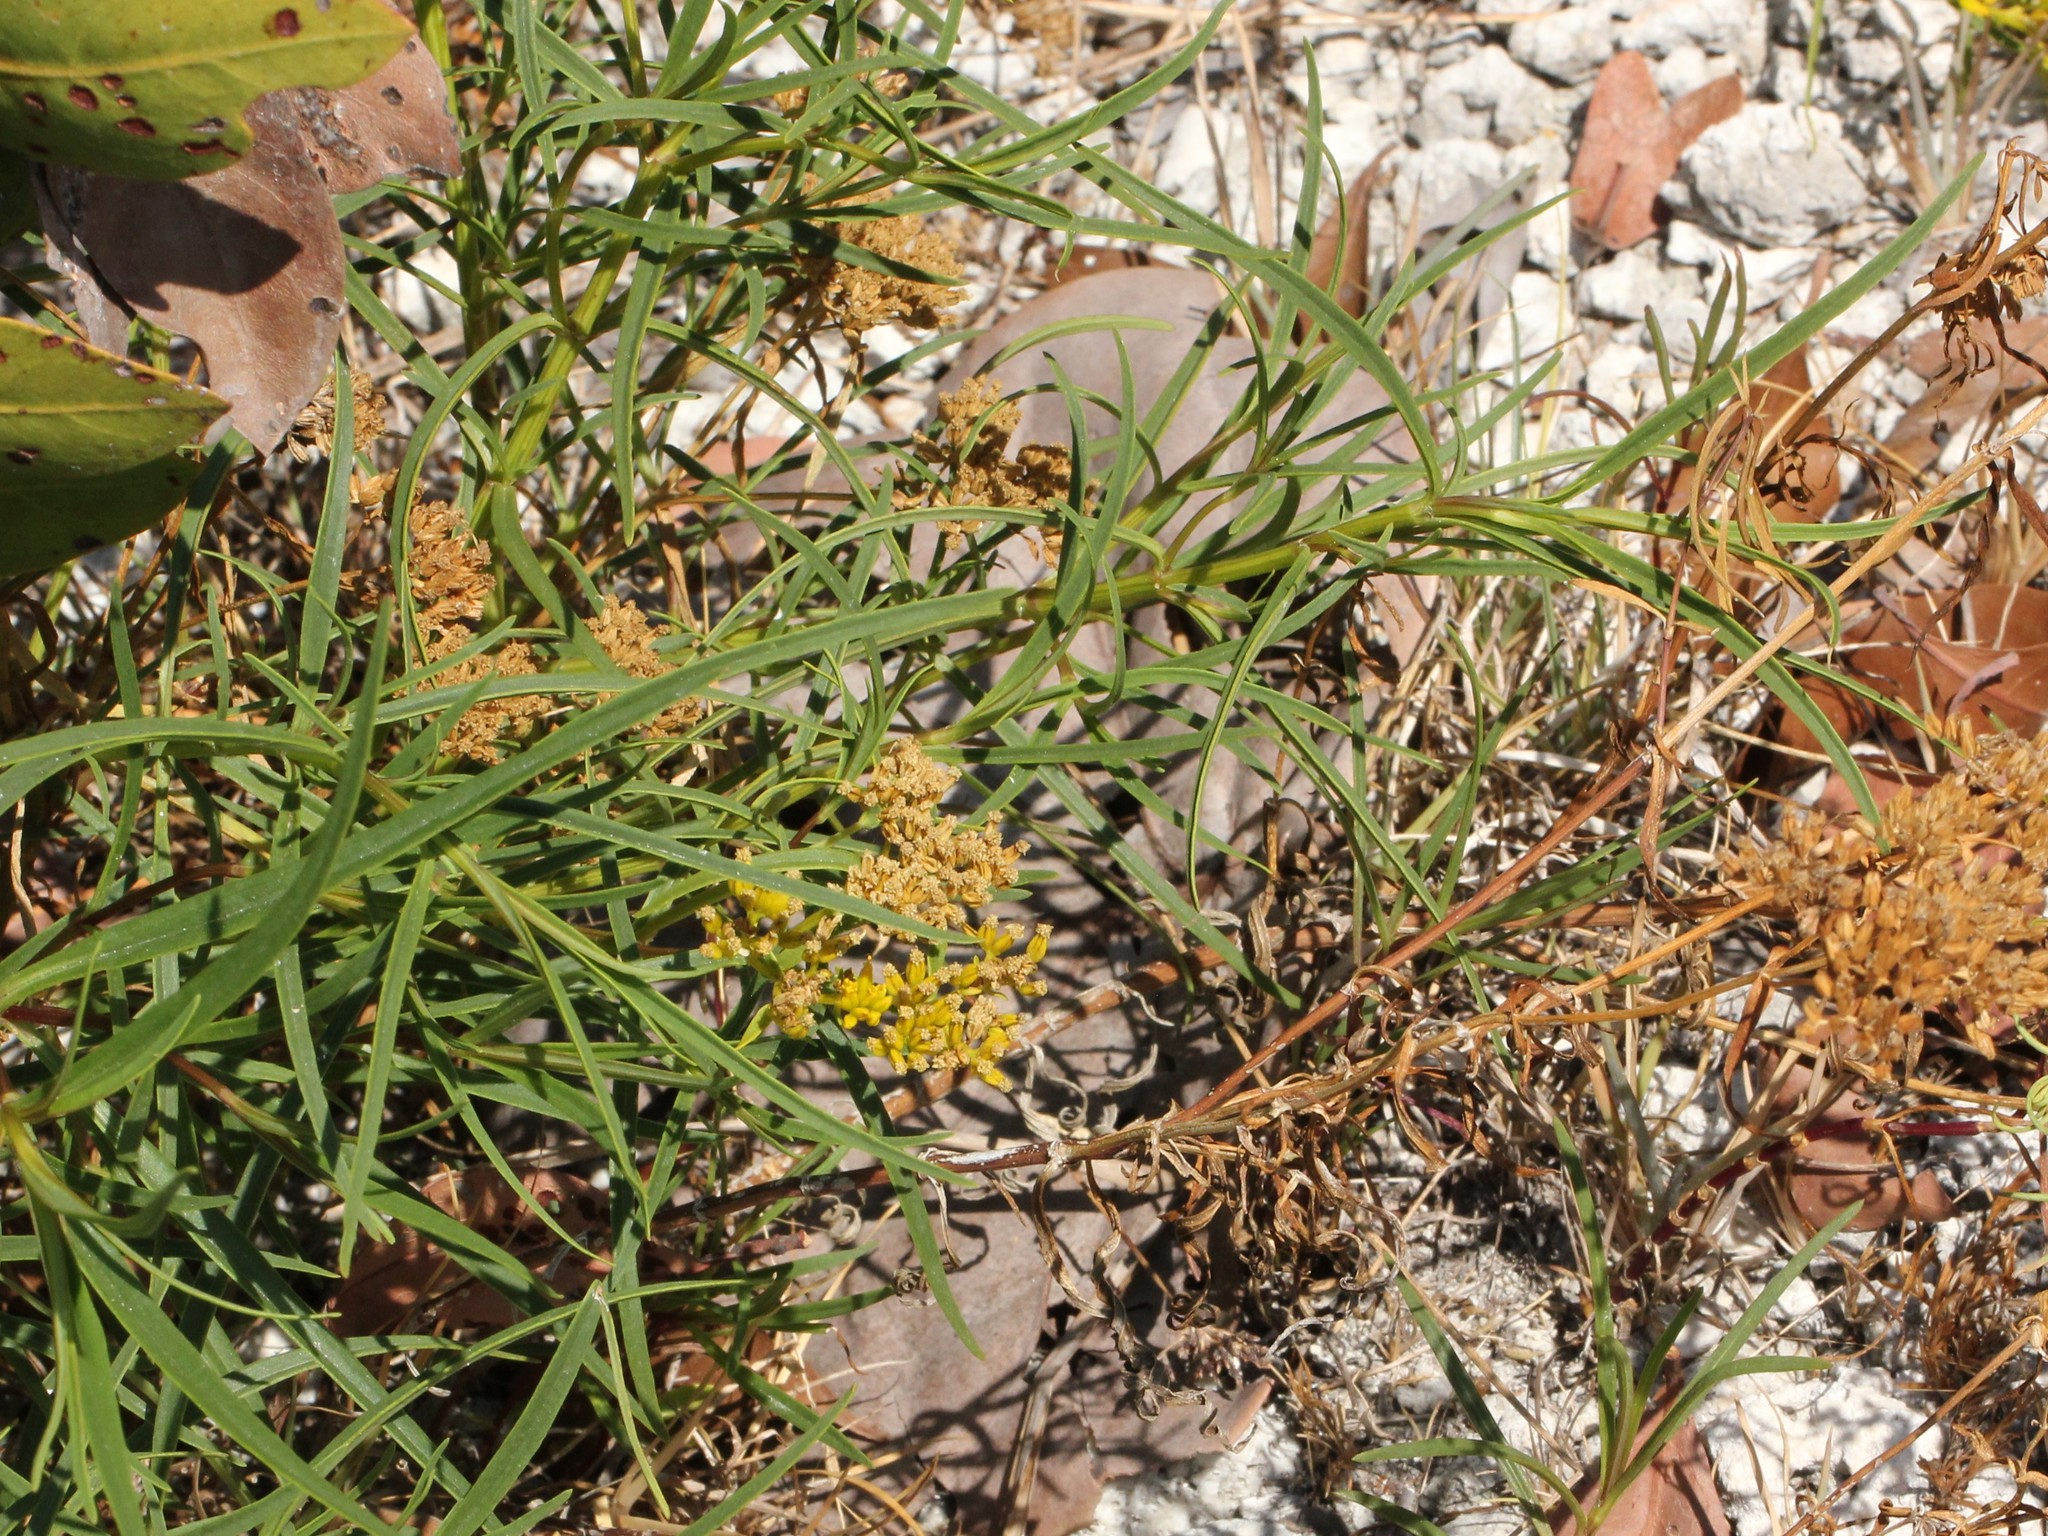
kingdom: Plantae
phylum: Tracheophyta
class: Magnoliopsida
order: Asterales
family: Asteraceae
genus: Flaveria
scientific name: Flaveria linearis
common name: Yellowtop
